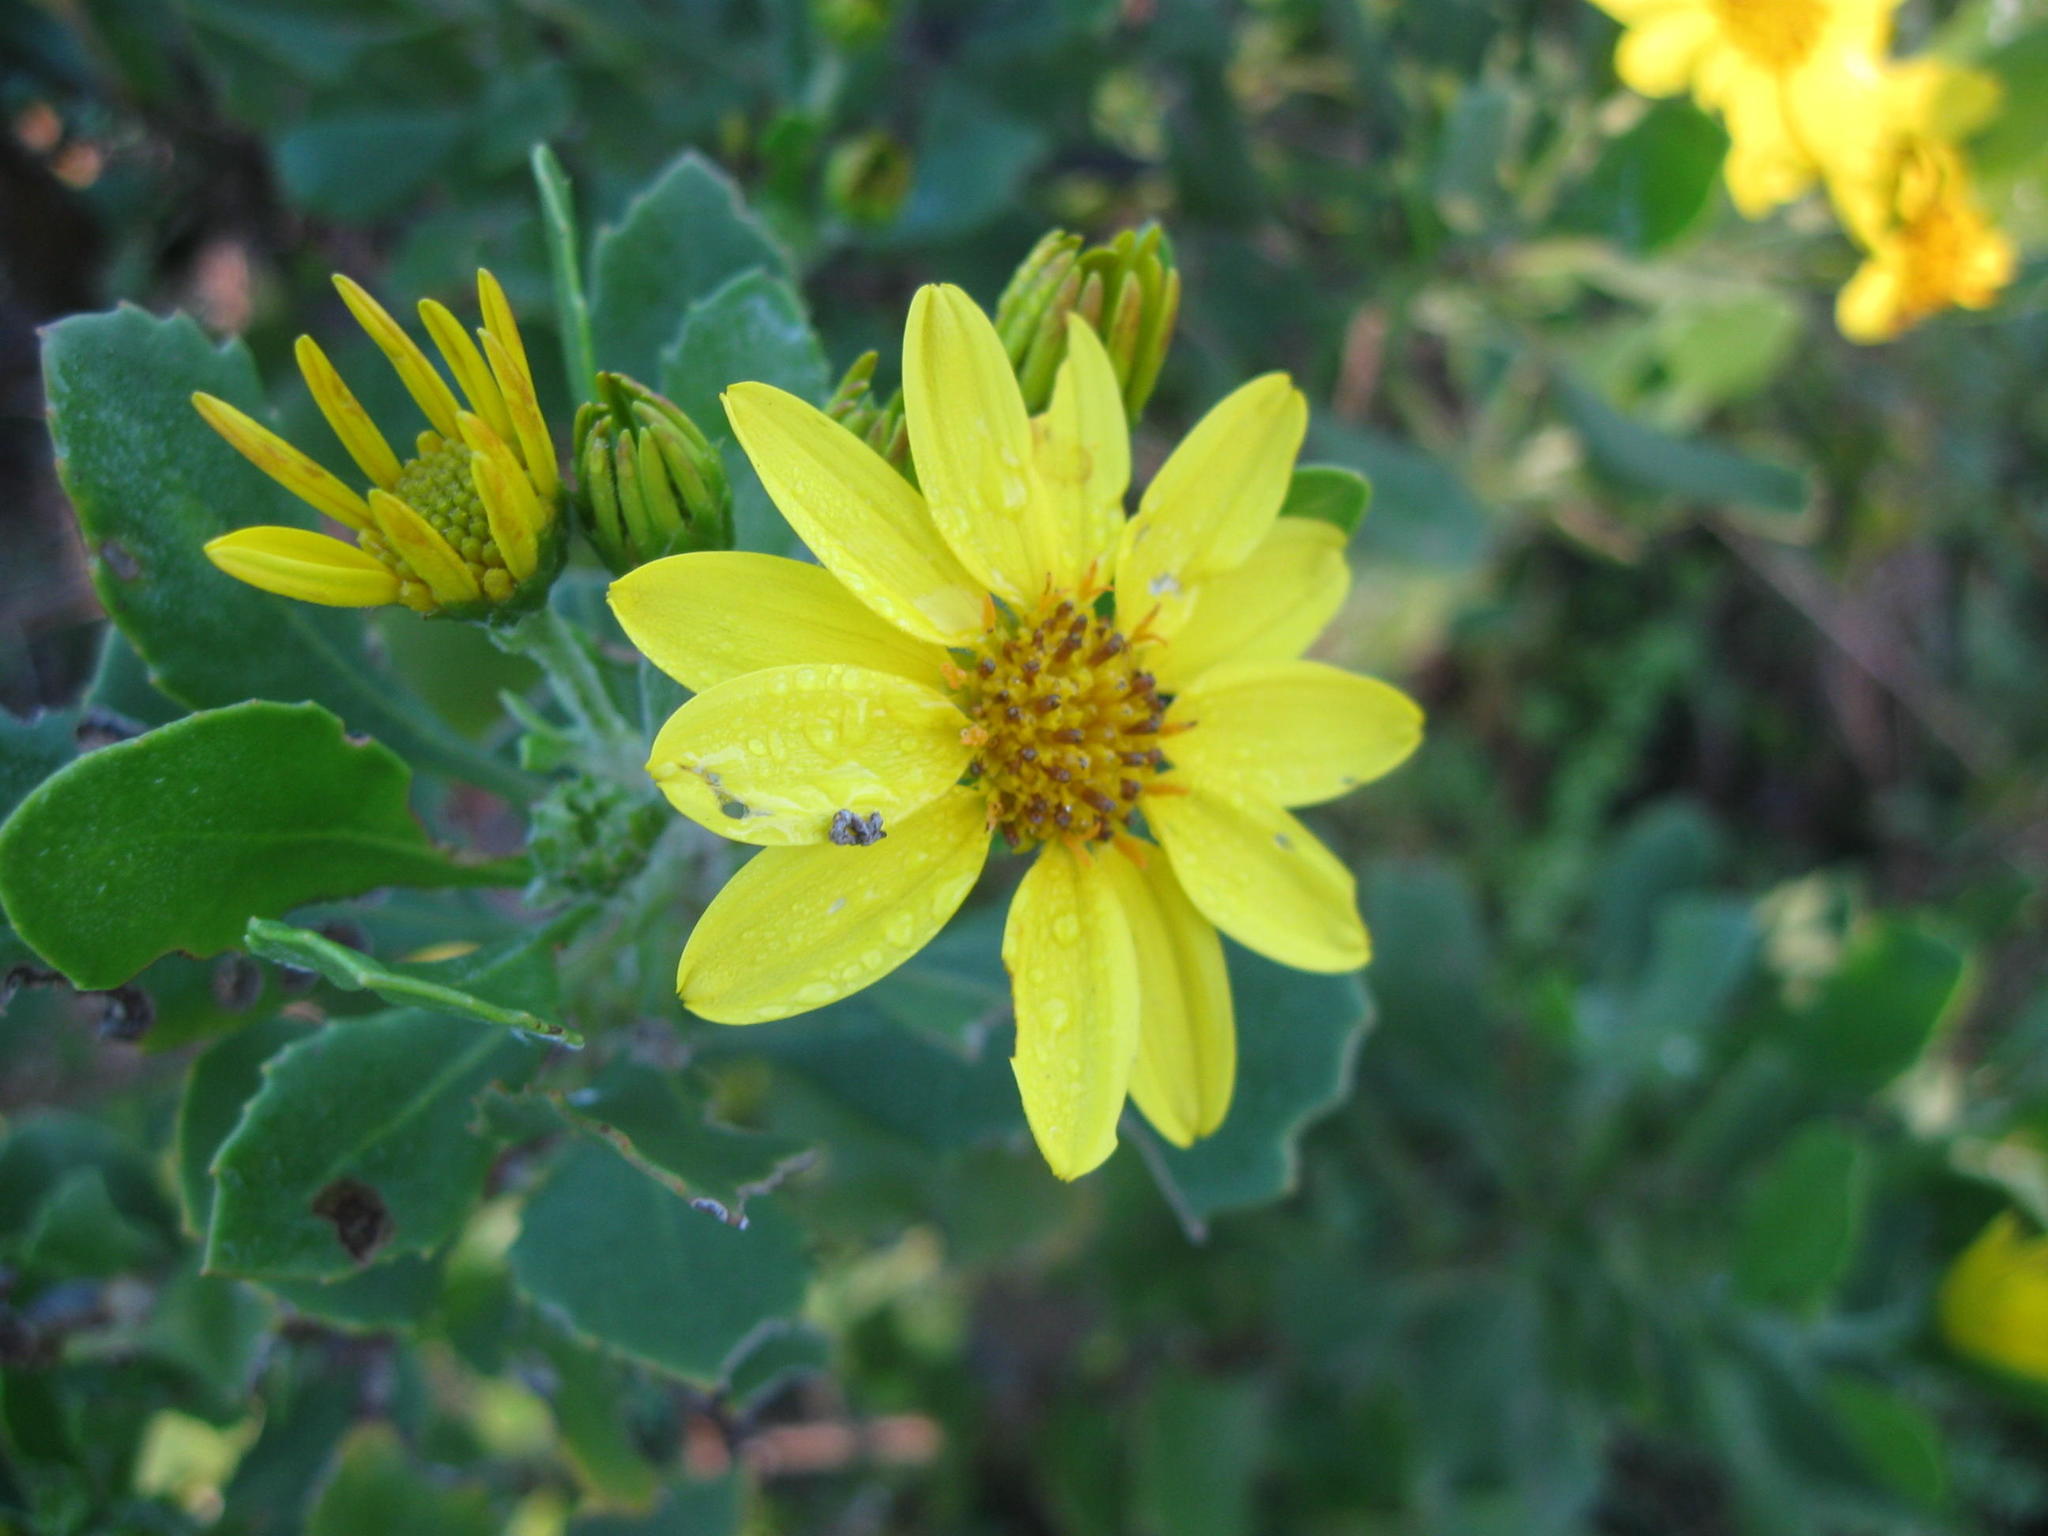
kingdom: Plantae
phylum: Tracheophyta
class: Magnoliopsida
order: Asterales
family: Asteraceae
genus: Osteospermum
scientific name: Osteospermum moniliferum
